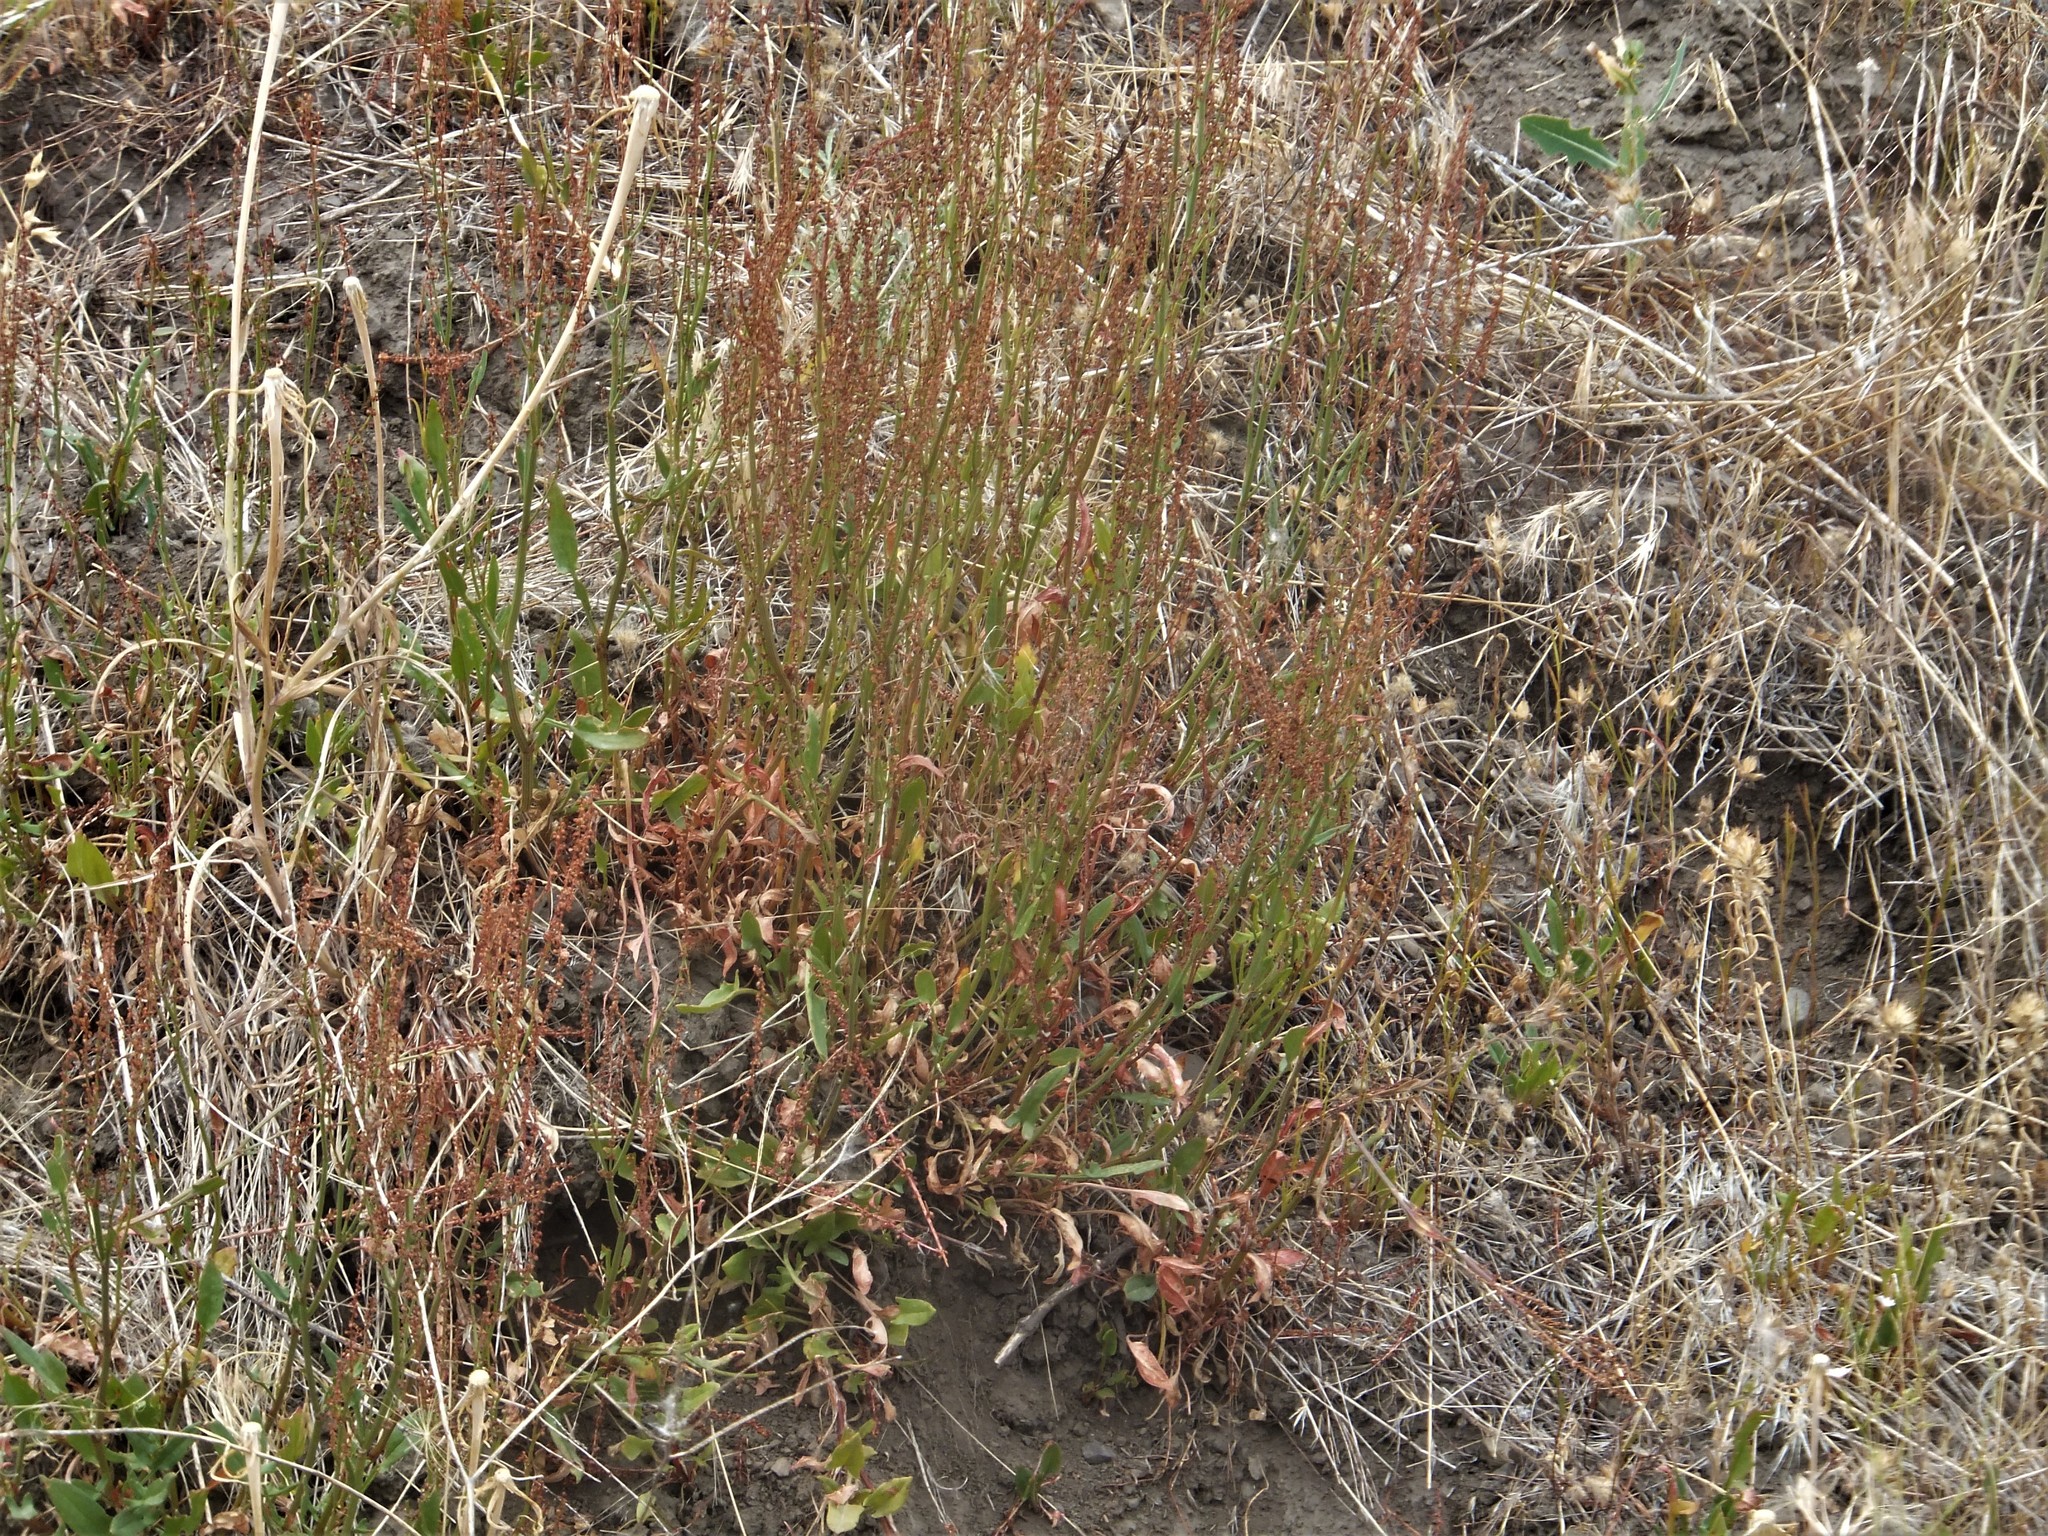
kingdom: Plantae
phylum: Tracheophyta
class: Magnoliopsida
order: Caryophyllales
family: Polygonaceae
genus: Rumex
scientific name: Rumex acetosella
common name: Common sheep sorrel
